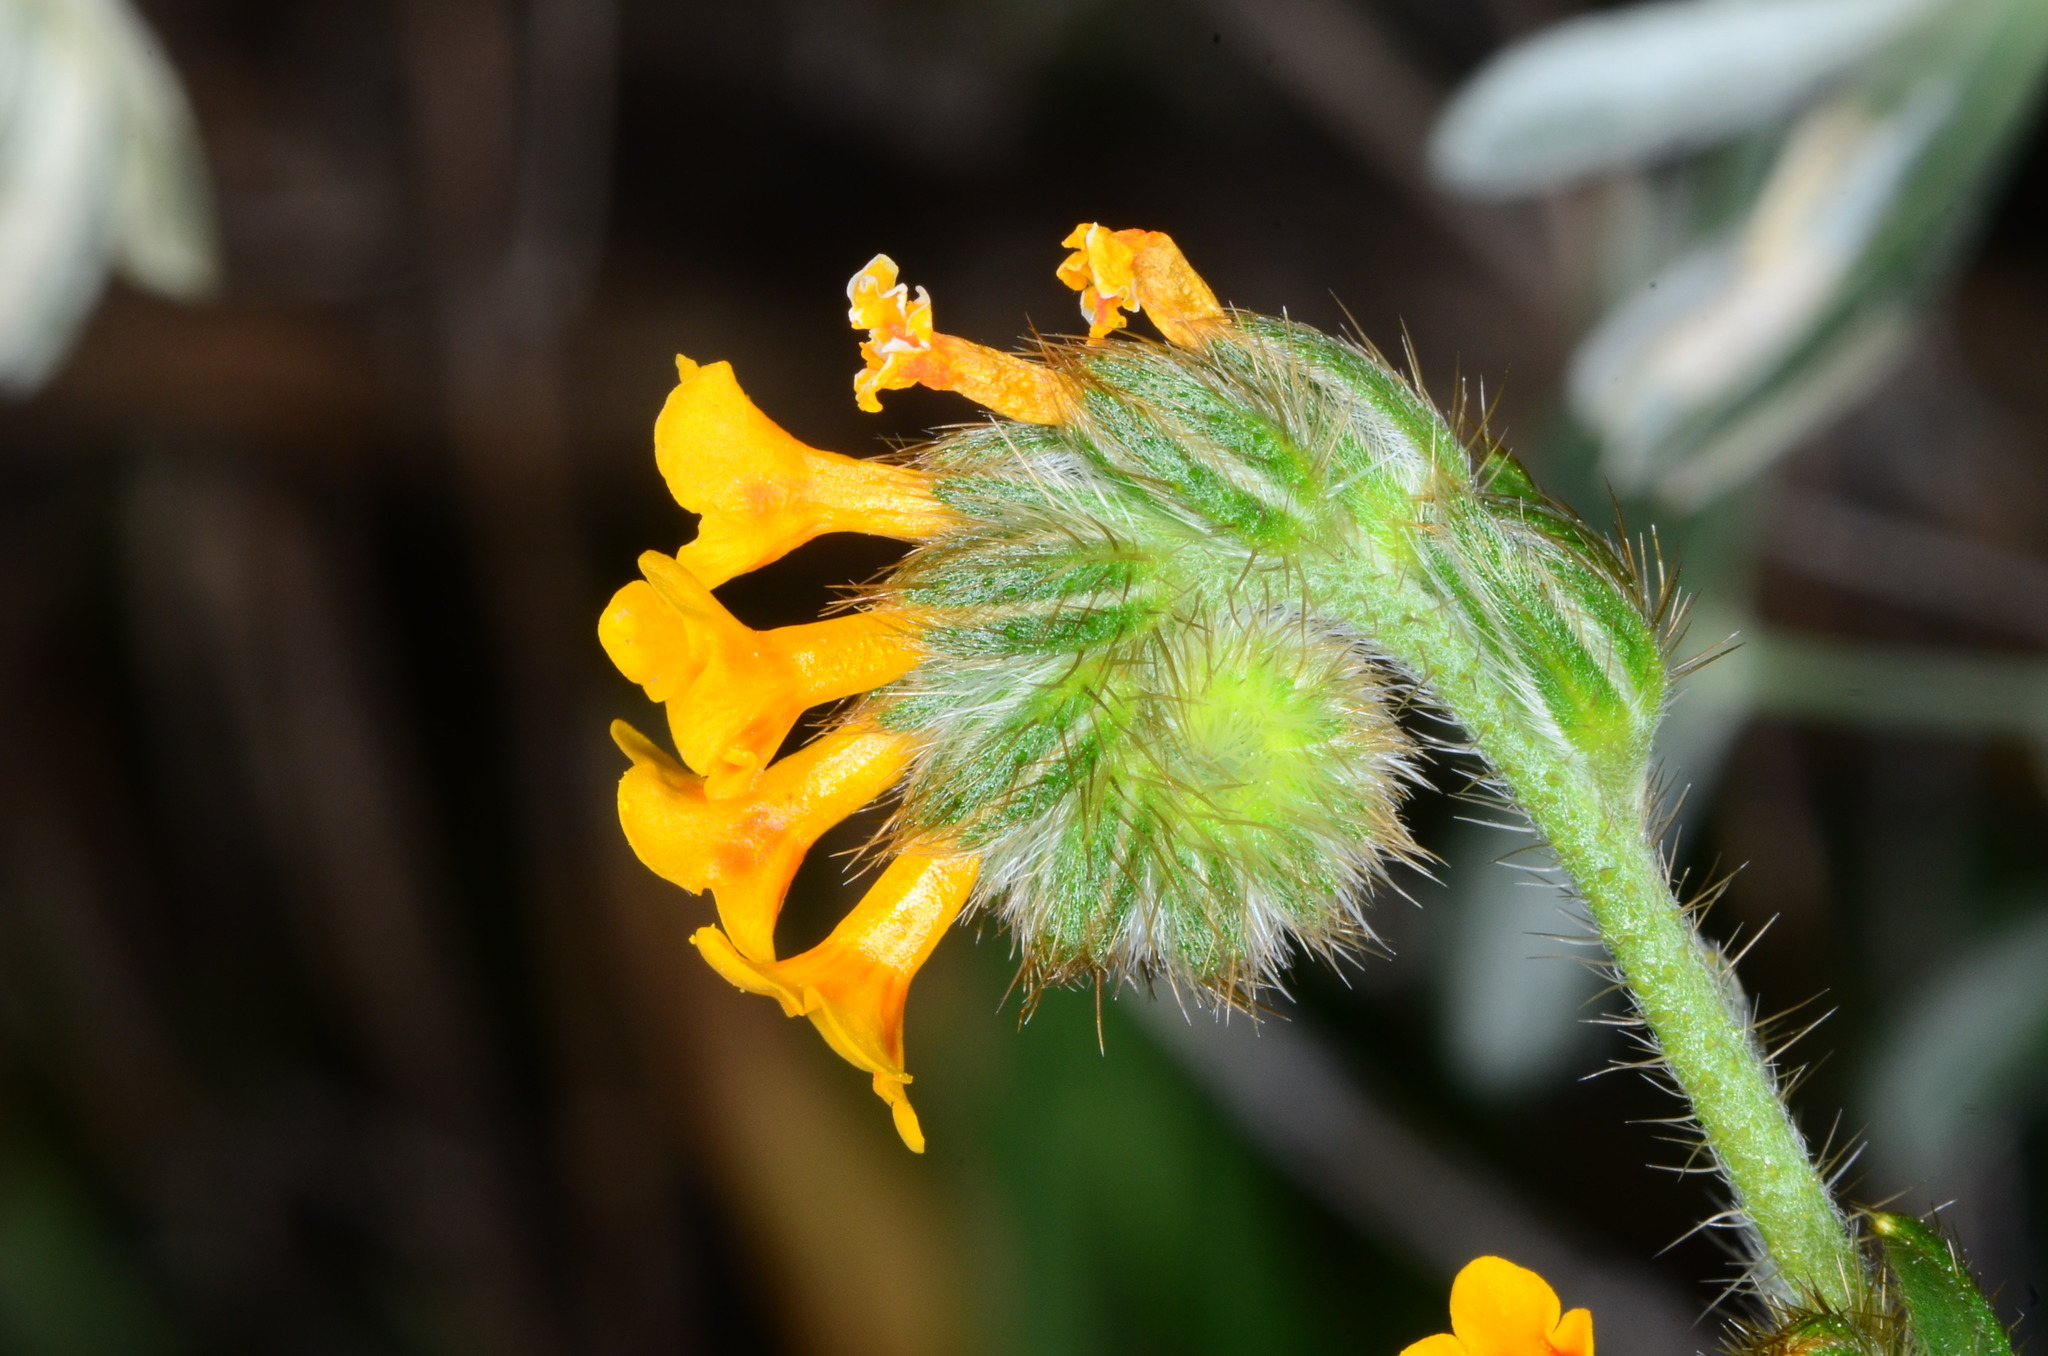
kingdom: Plantae
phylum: Tracheophyta
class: Magnoliopsida
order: Boraginales
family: Boraginaceae
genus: Amsinckia
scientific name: Amsinckia menziesii
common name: Menzies' fiddleneck
